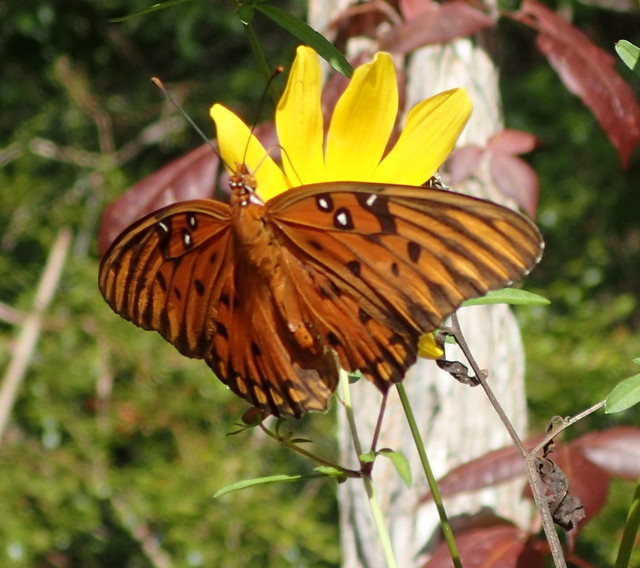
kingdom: Animalia
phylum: Arthropoda
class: Insecta
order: Lepidoptera
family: Nymphalidae
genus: Dione
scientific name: Dione vanillae
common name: Gulf fritillary
